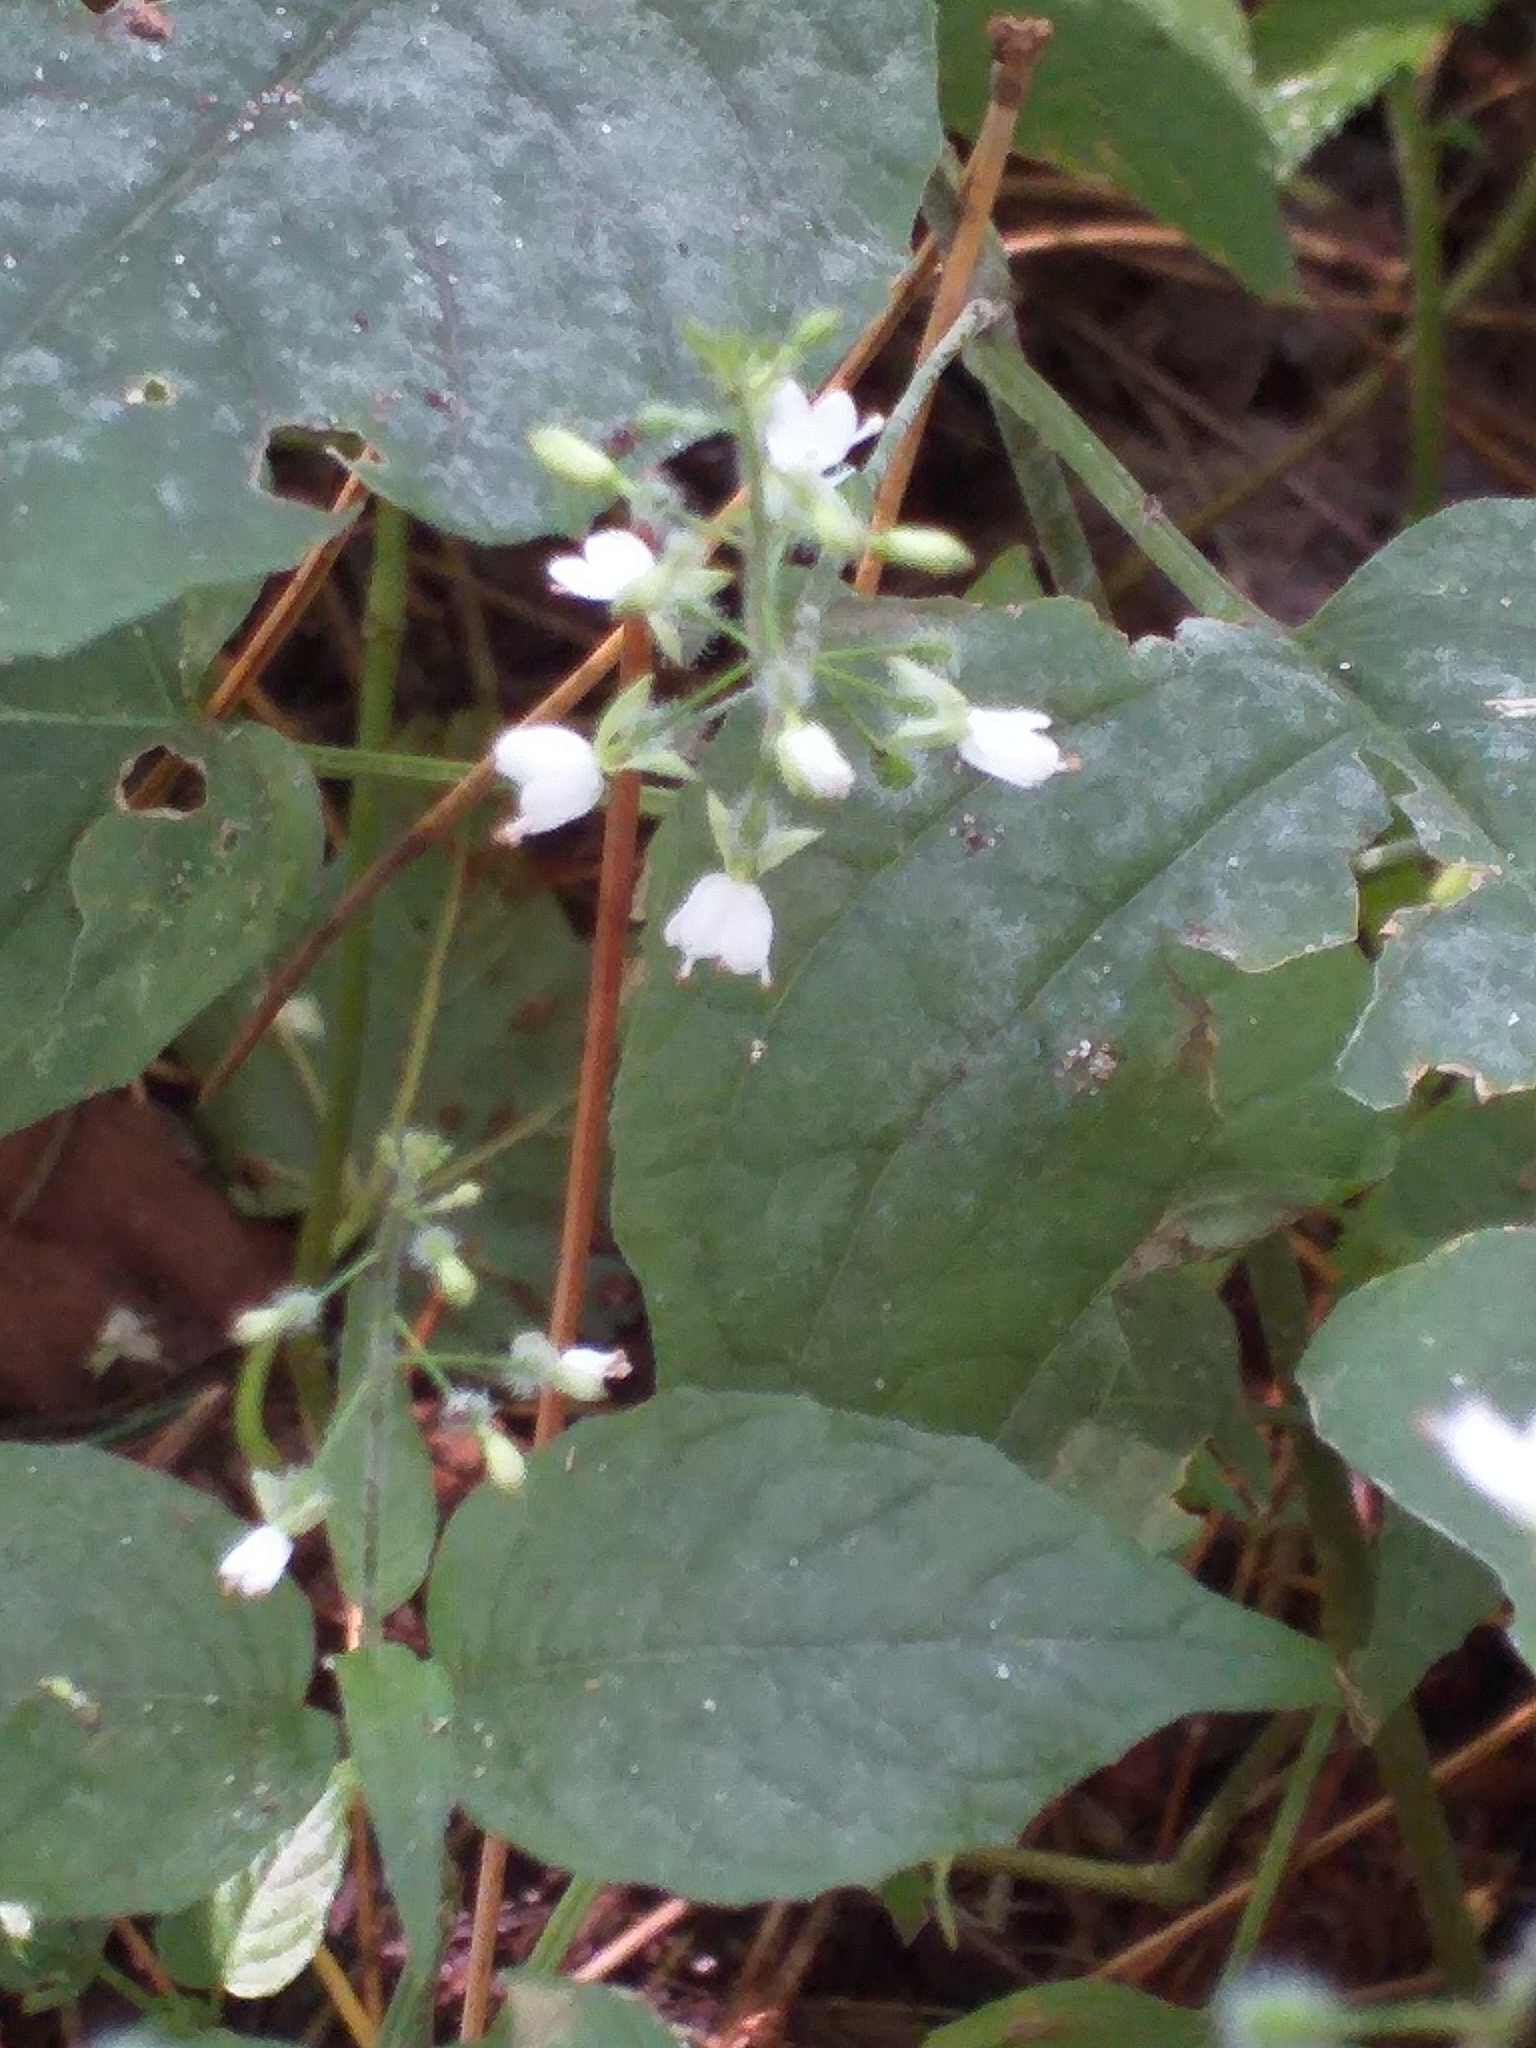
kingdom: Plantae
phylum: Tracheophyta
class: Magnoliopsida
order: Myrtales
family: Onagraceae
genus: Circaea
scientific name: Circaea lutetiana
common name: Enchanter's-nightshade
